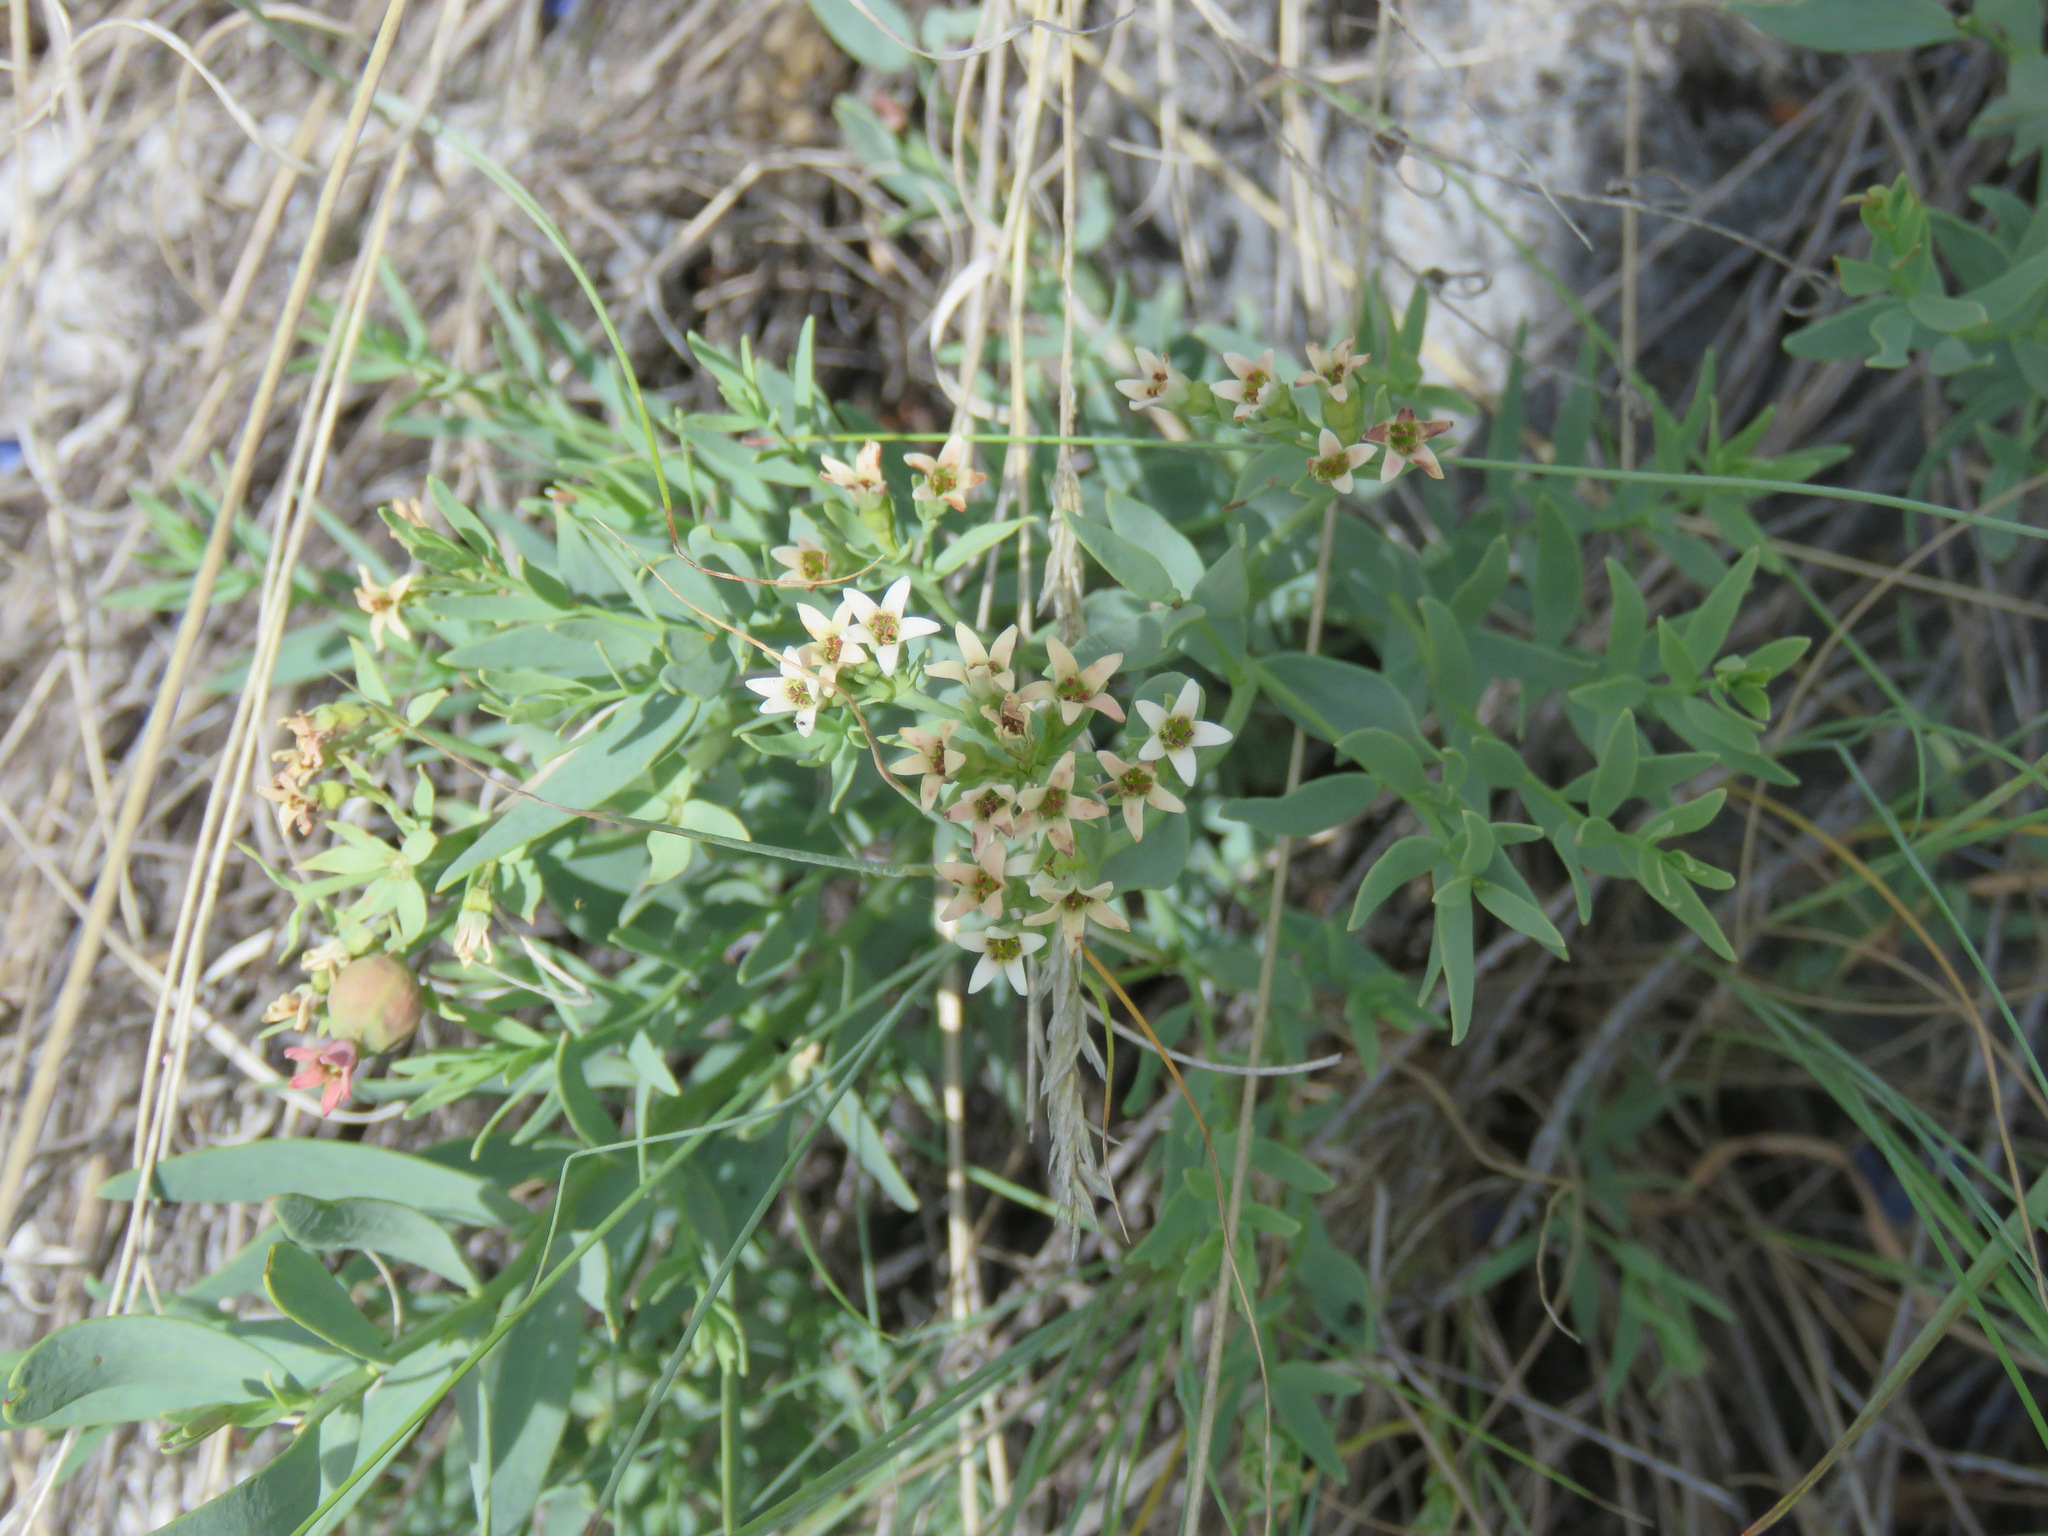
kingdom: Plantae
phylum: Tracheophyta
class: Magnoliopsida
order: Santalales
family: Comandraceae
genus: Comandra
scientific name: Comandra umbellata
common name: Bastard toadflax
